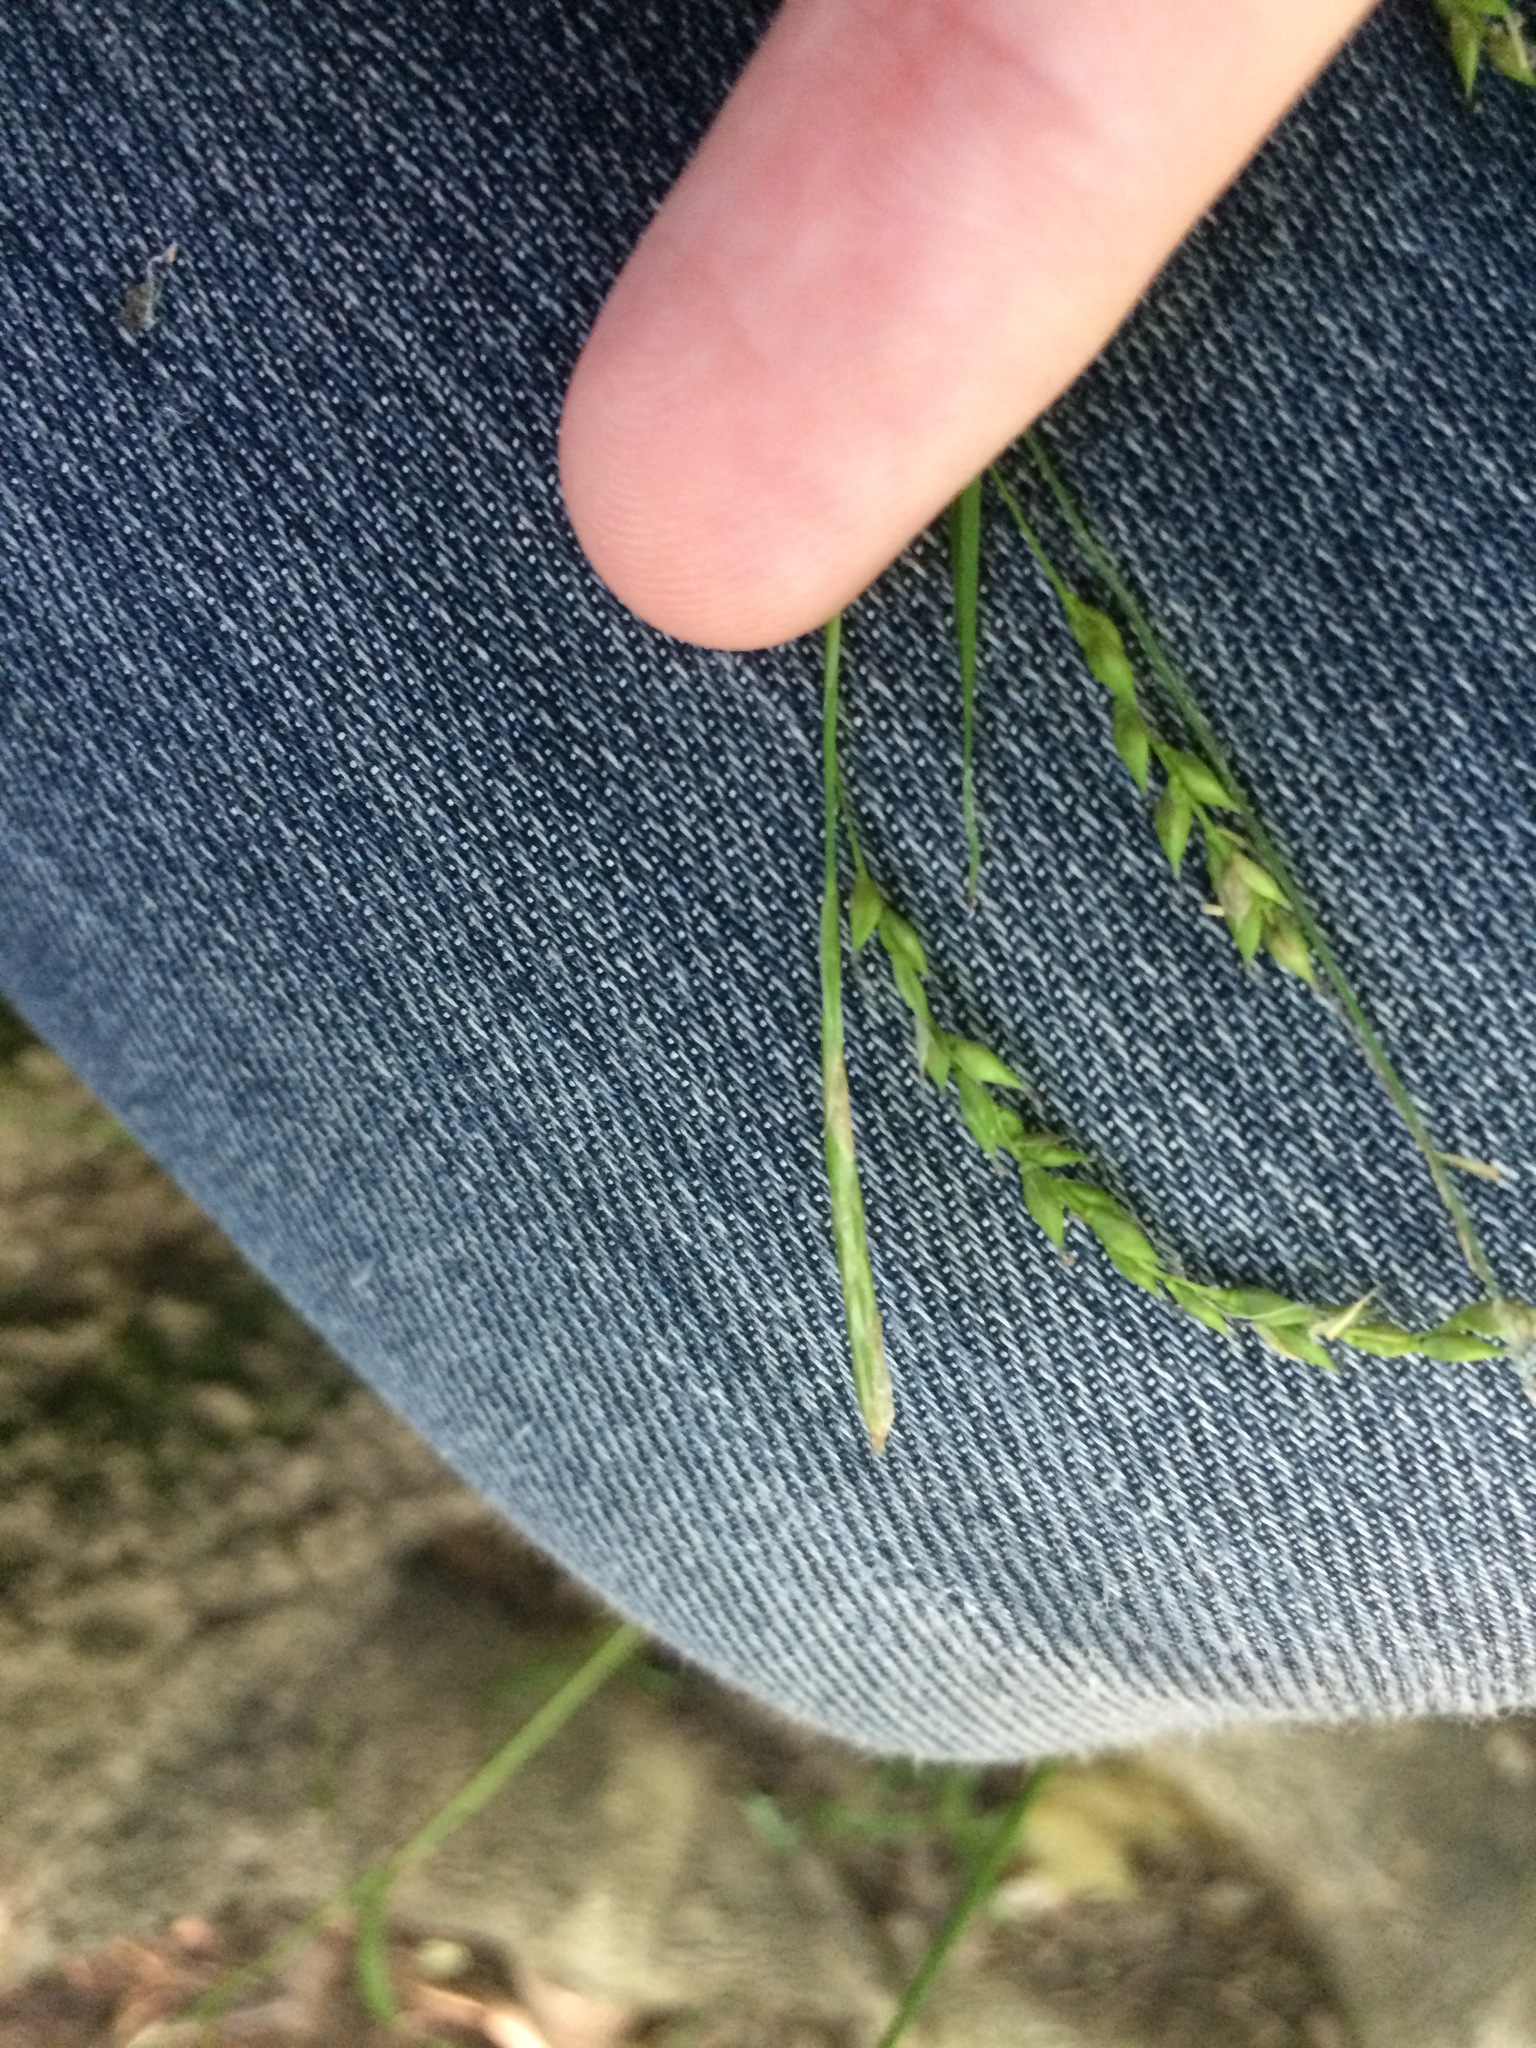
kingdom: Plantae
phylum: Tracheophyta
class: Liliopsida
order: Poales
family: Cyperaceae
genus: Carex
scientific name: Carex arctata
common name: Black sedge
